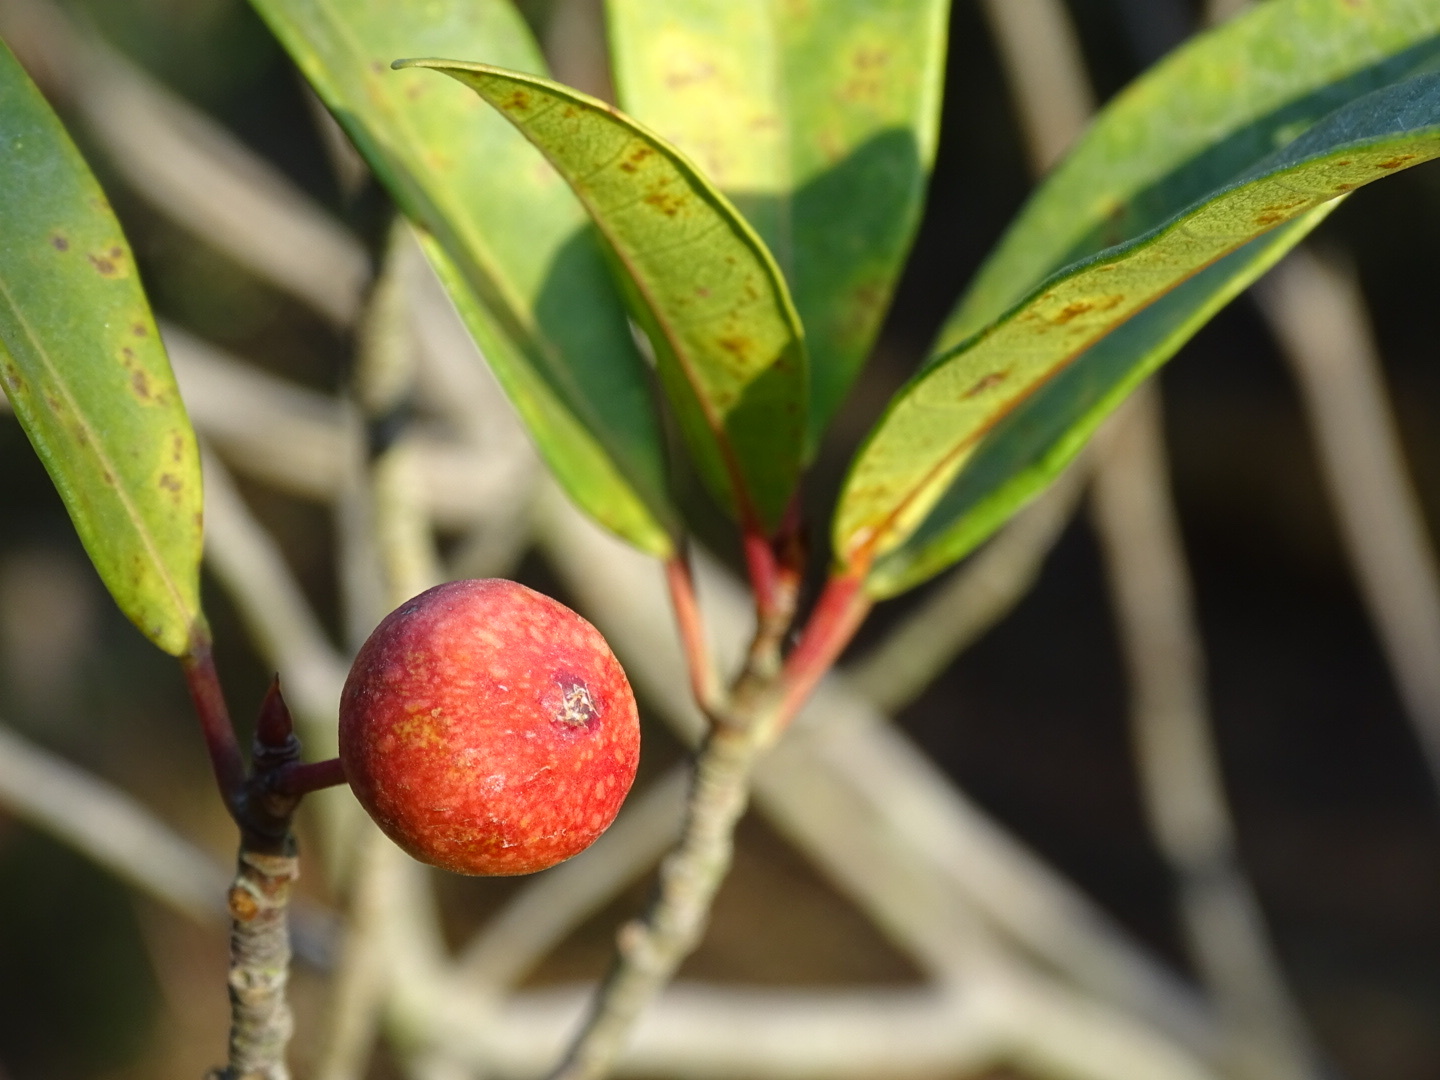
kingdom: Plantae
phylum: Tracheophyta
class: Magnoliopsida
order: Rosales
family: Moraceae
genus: Ficus
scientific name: Ficus variolosa
